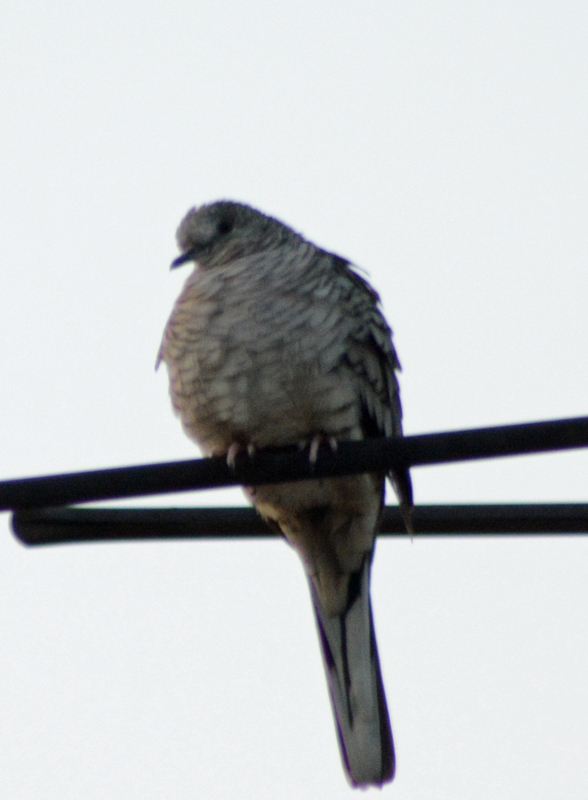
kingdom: Animalia
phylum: Chordata
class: Aves
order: Columbiformes
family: Columbidae
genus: Columbina
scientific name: Columbina inca
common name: Inca dove
